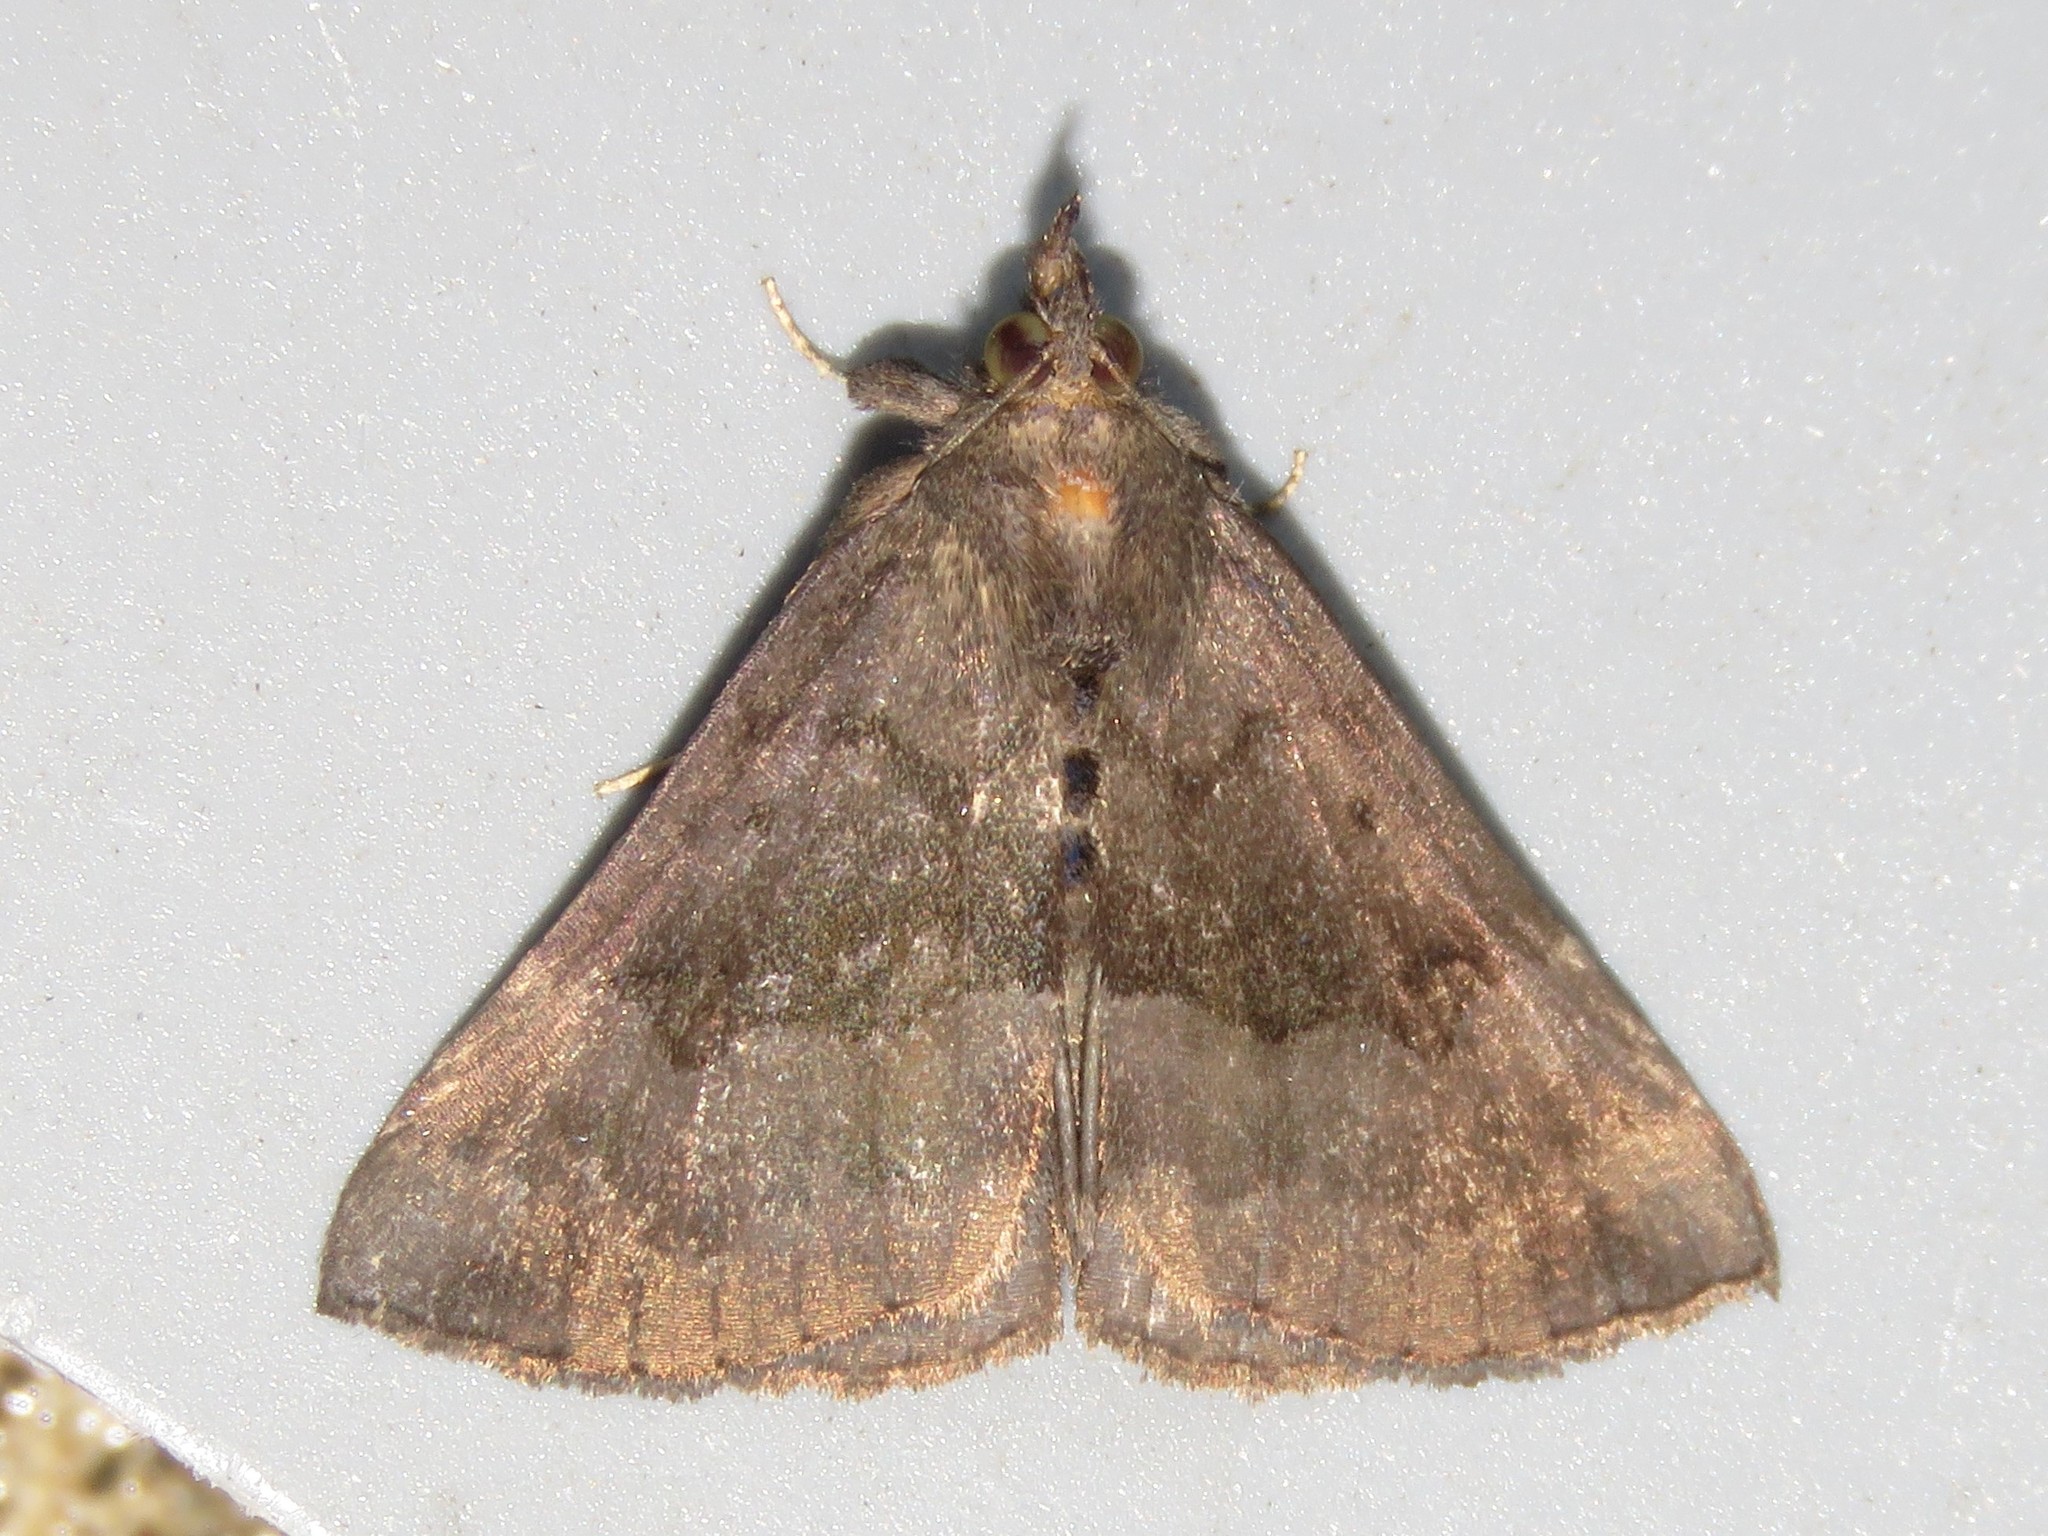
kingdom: Animalia
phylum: Arthropoda
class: Insecta
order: Lepidoptera
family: Erebidae
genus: Hypena
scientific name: Hypena madefactalis
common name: Gray-edged snout
